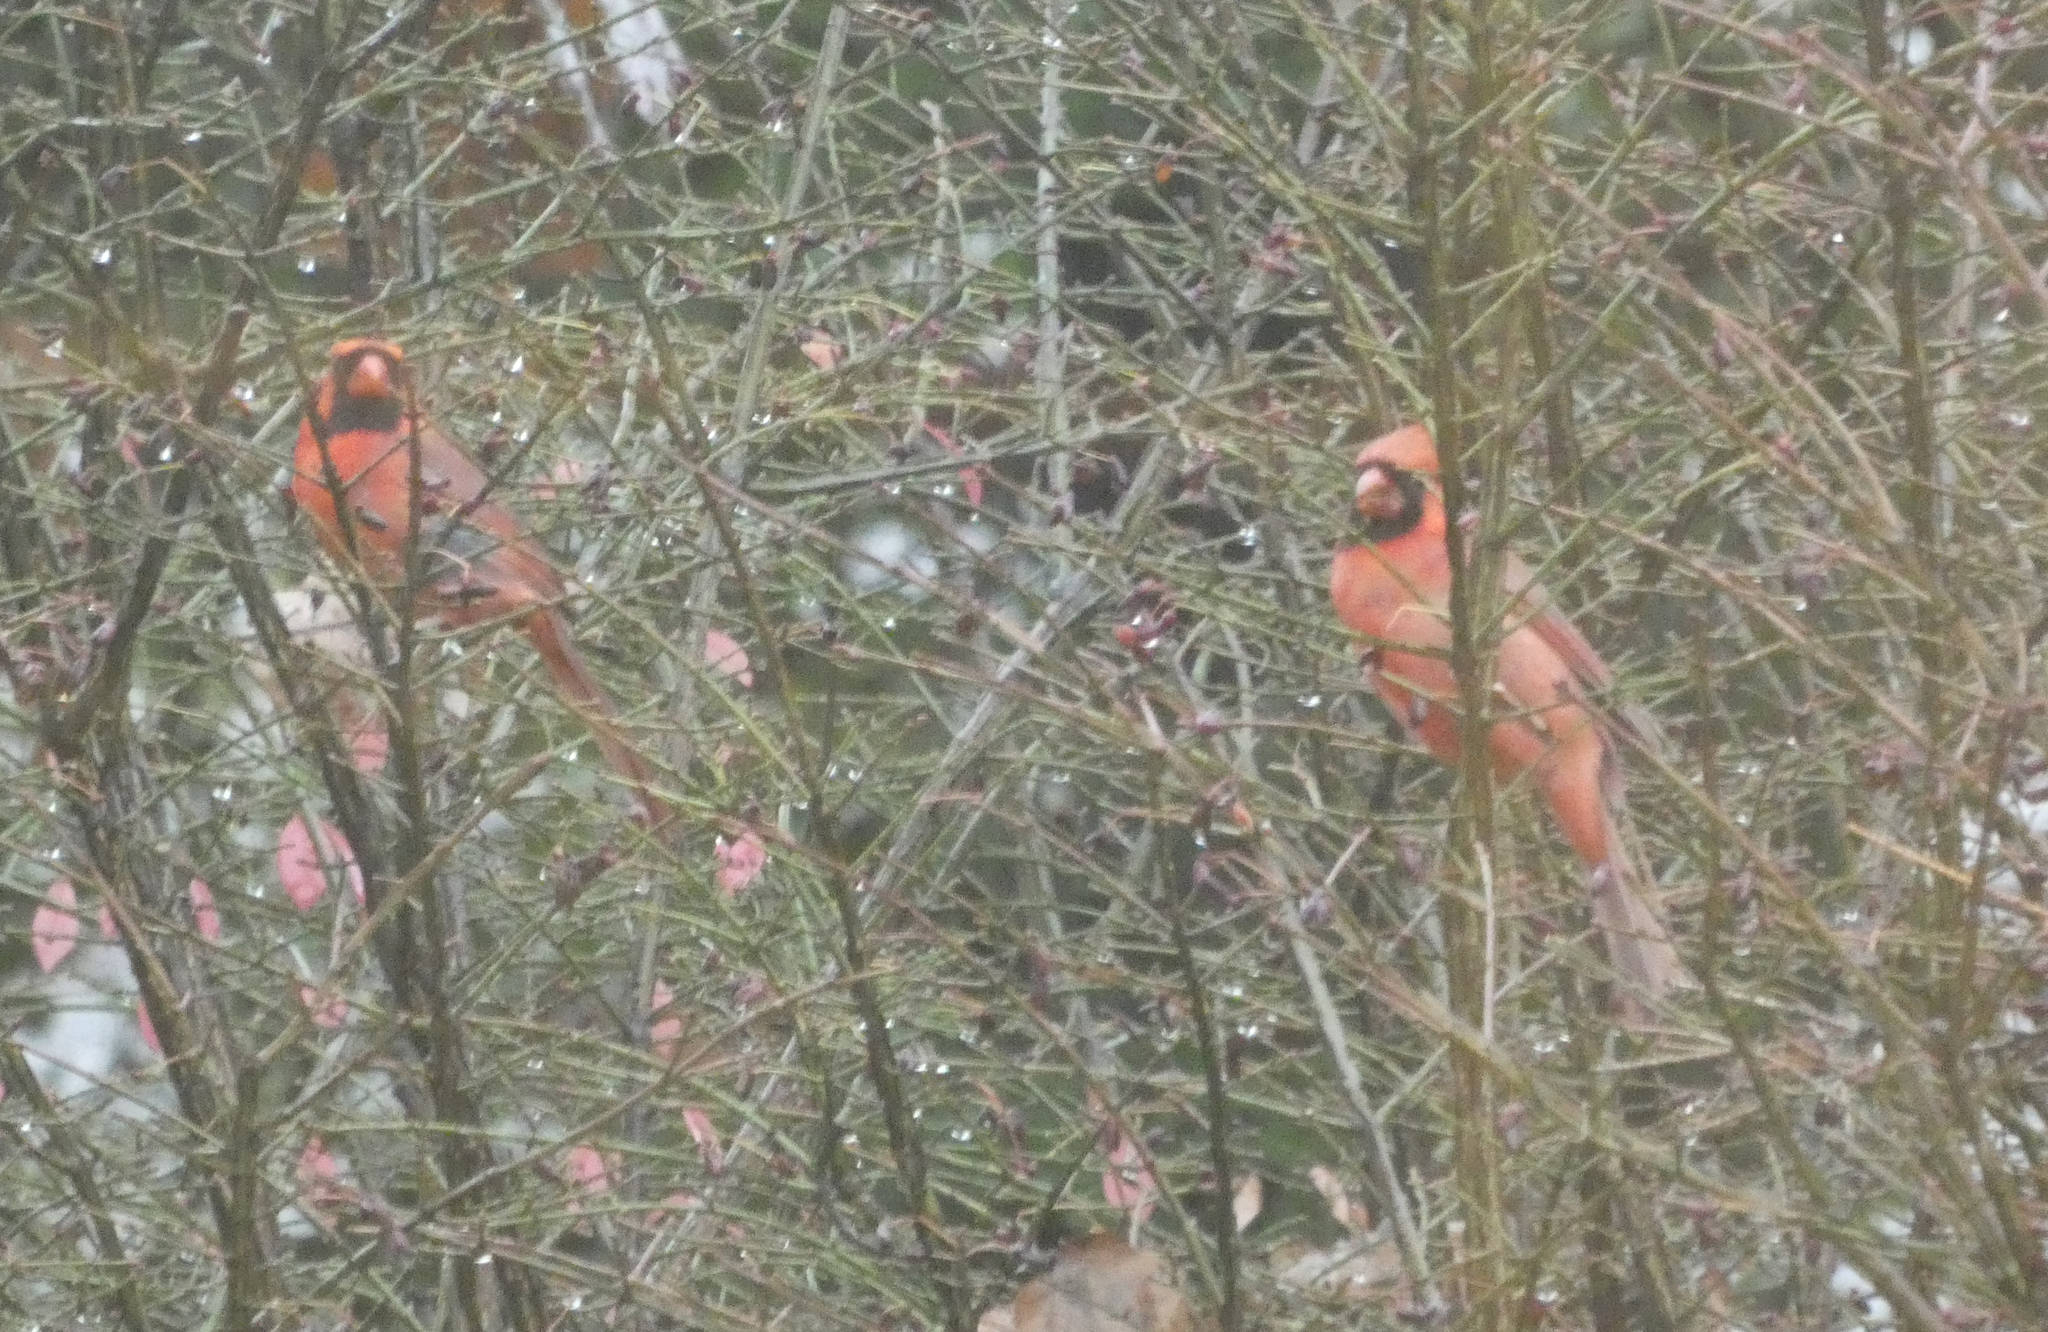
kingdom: Animalia
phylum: Chordata
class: Aves
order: Passeriformes
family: Cardinalidae
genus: Cardinalis
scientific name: Cardinalis cardinalis
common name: Northern cardinal
